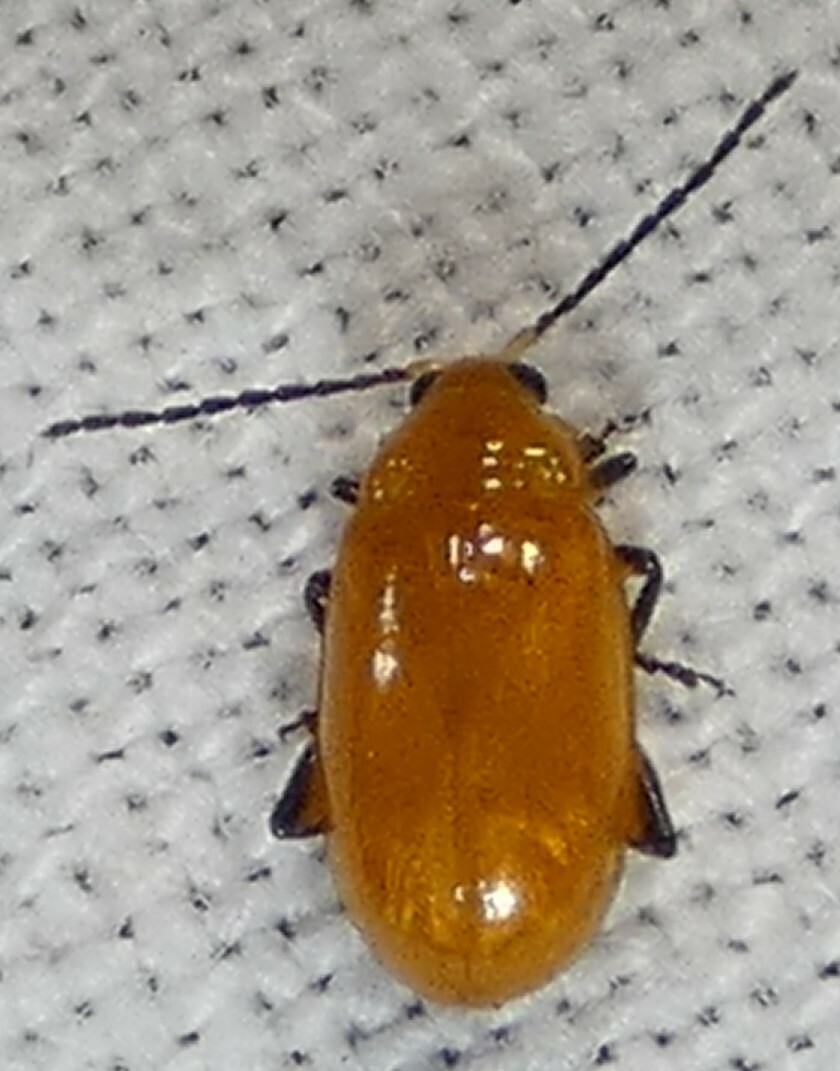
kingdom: Animalia
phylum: Arthropoda
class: Insecta
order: Coleoptera
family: Chrysomelidae
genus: Parchicola
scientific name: Parchicola tibialis
